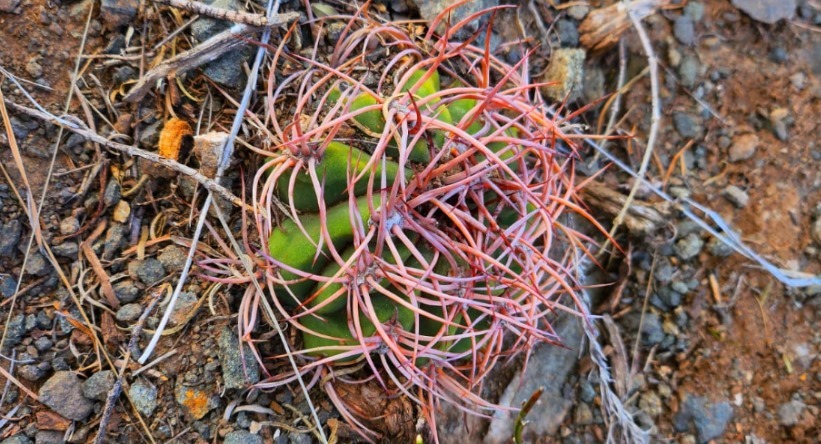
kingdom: Plantae
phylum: Tracheophyta
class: Magnoliopsida
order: Caryophyllales
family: Cactaceae
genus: Denmoza
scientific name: Denmoza rhodacantha
